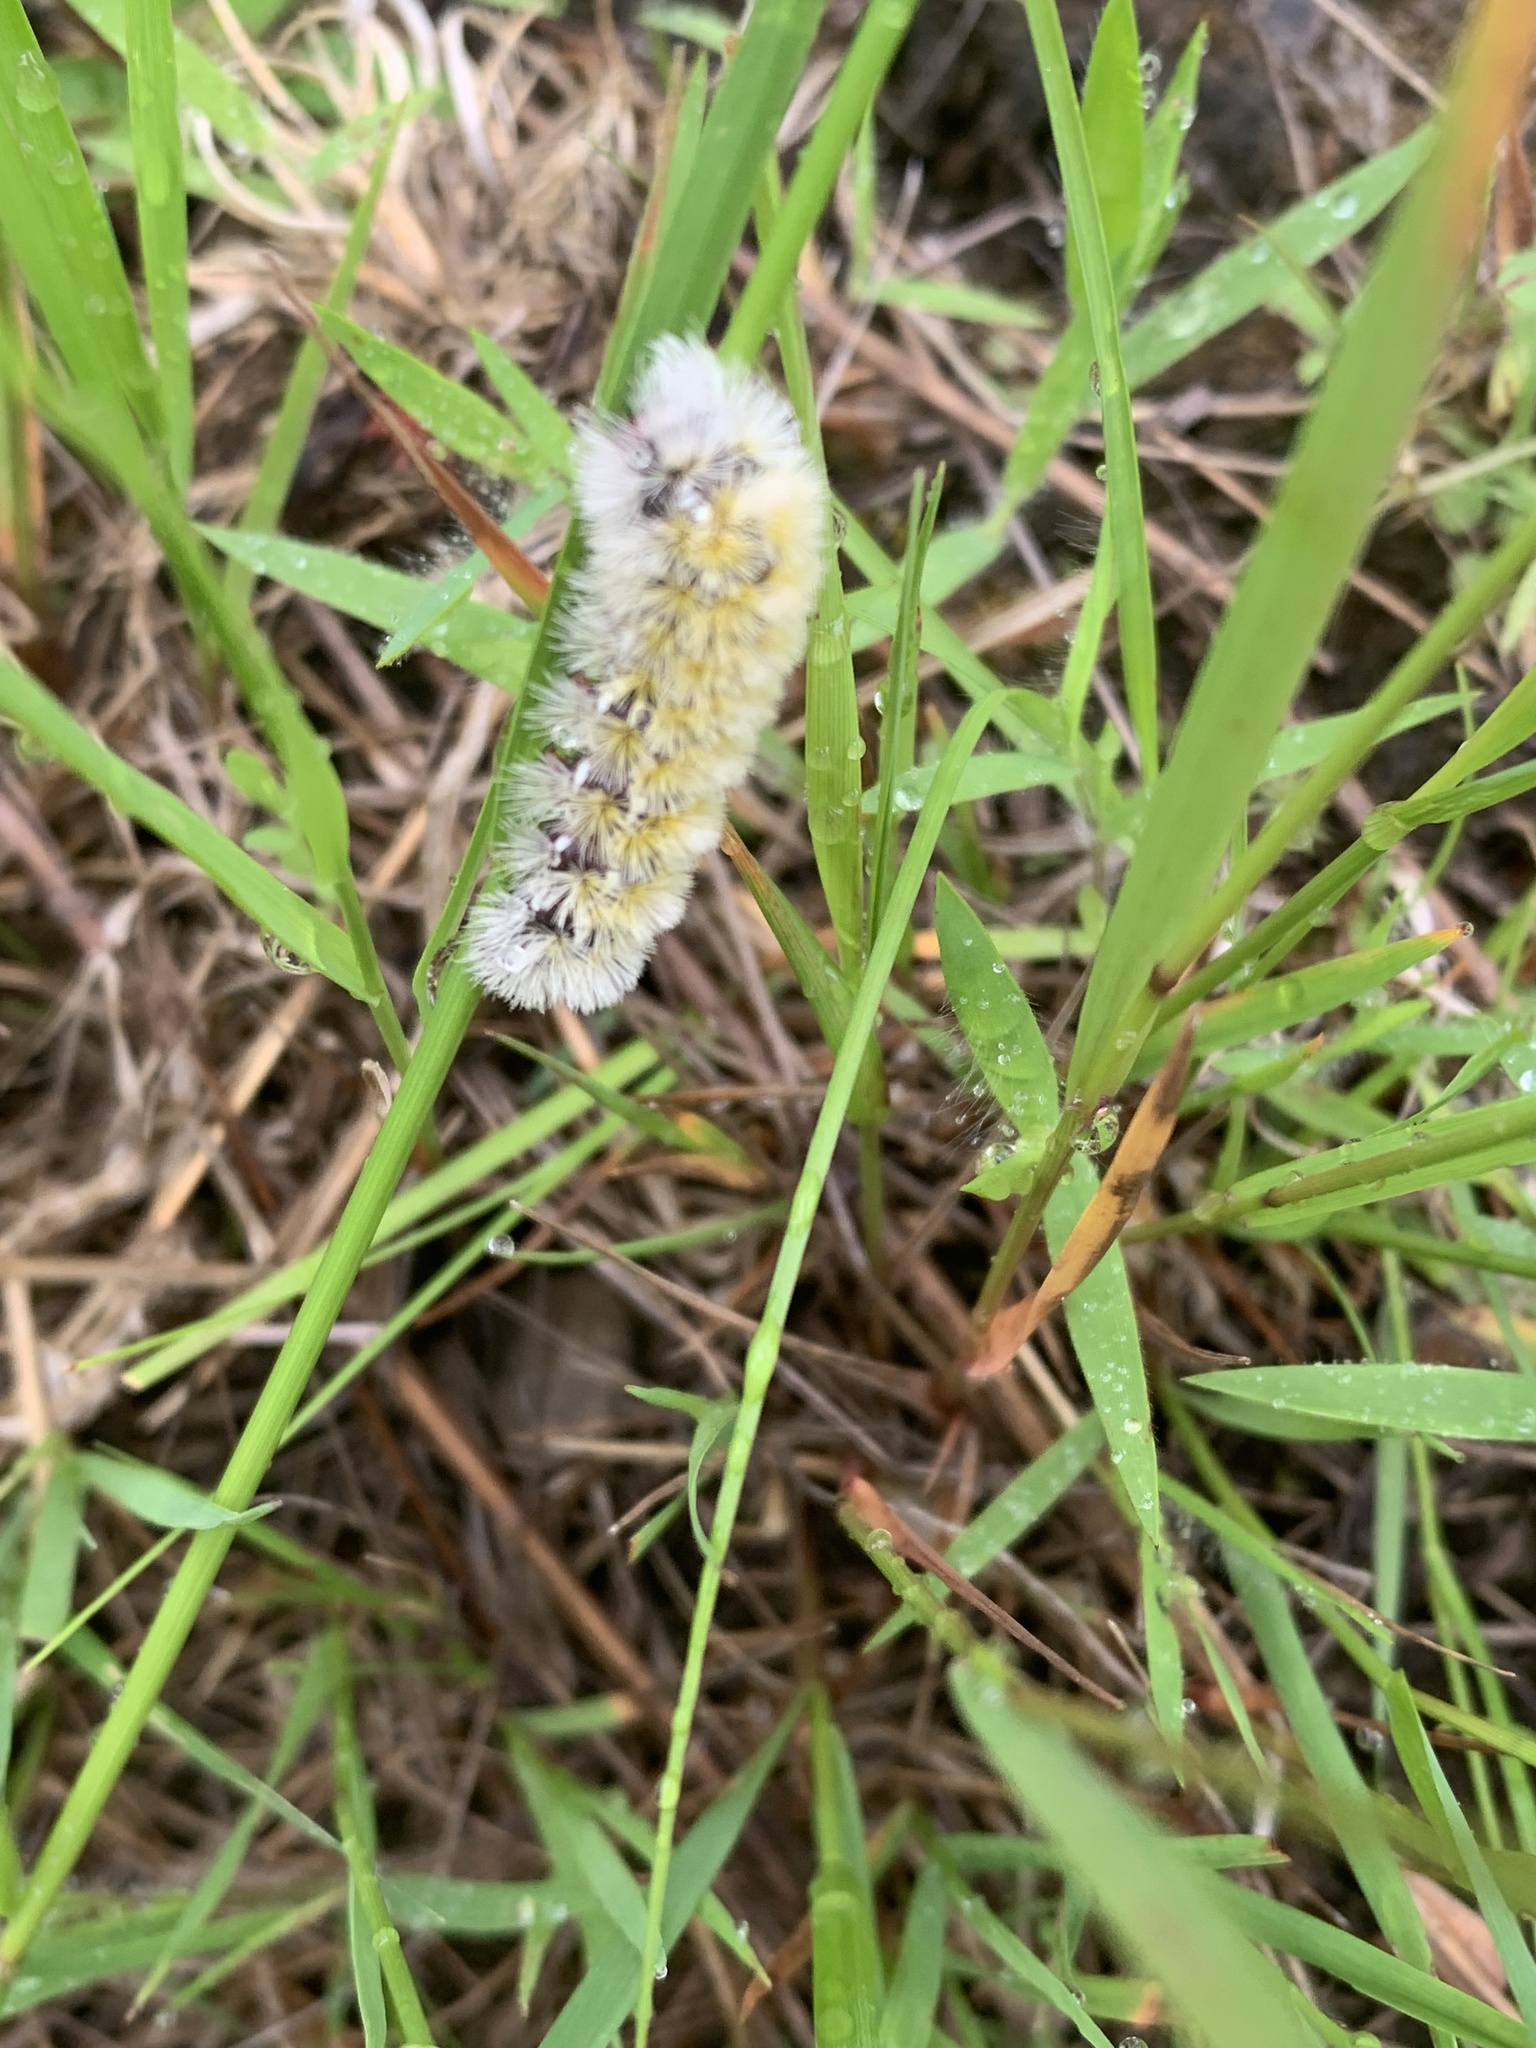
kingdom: Animalia
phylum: Arthropoda
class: Insecta
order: Lepidoptera
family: Erebidae
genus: Ctenucha
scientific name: Ctenucha virginica
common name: Virginia ctenucha moth
